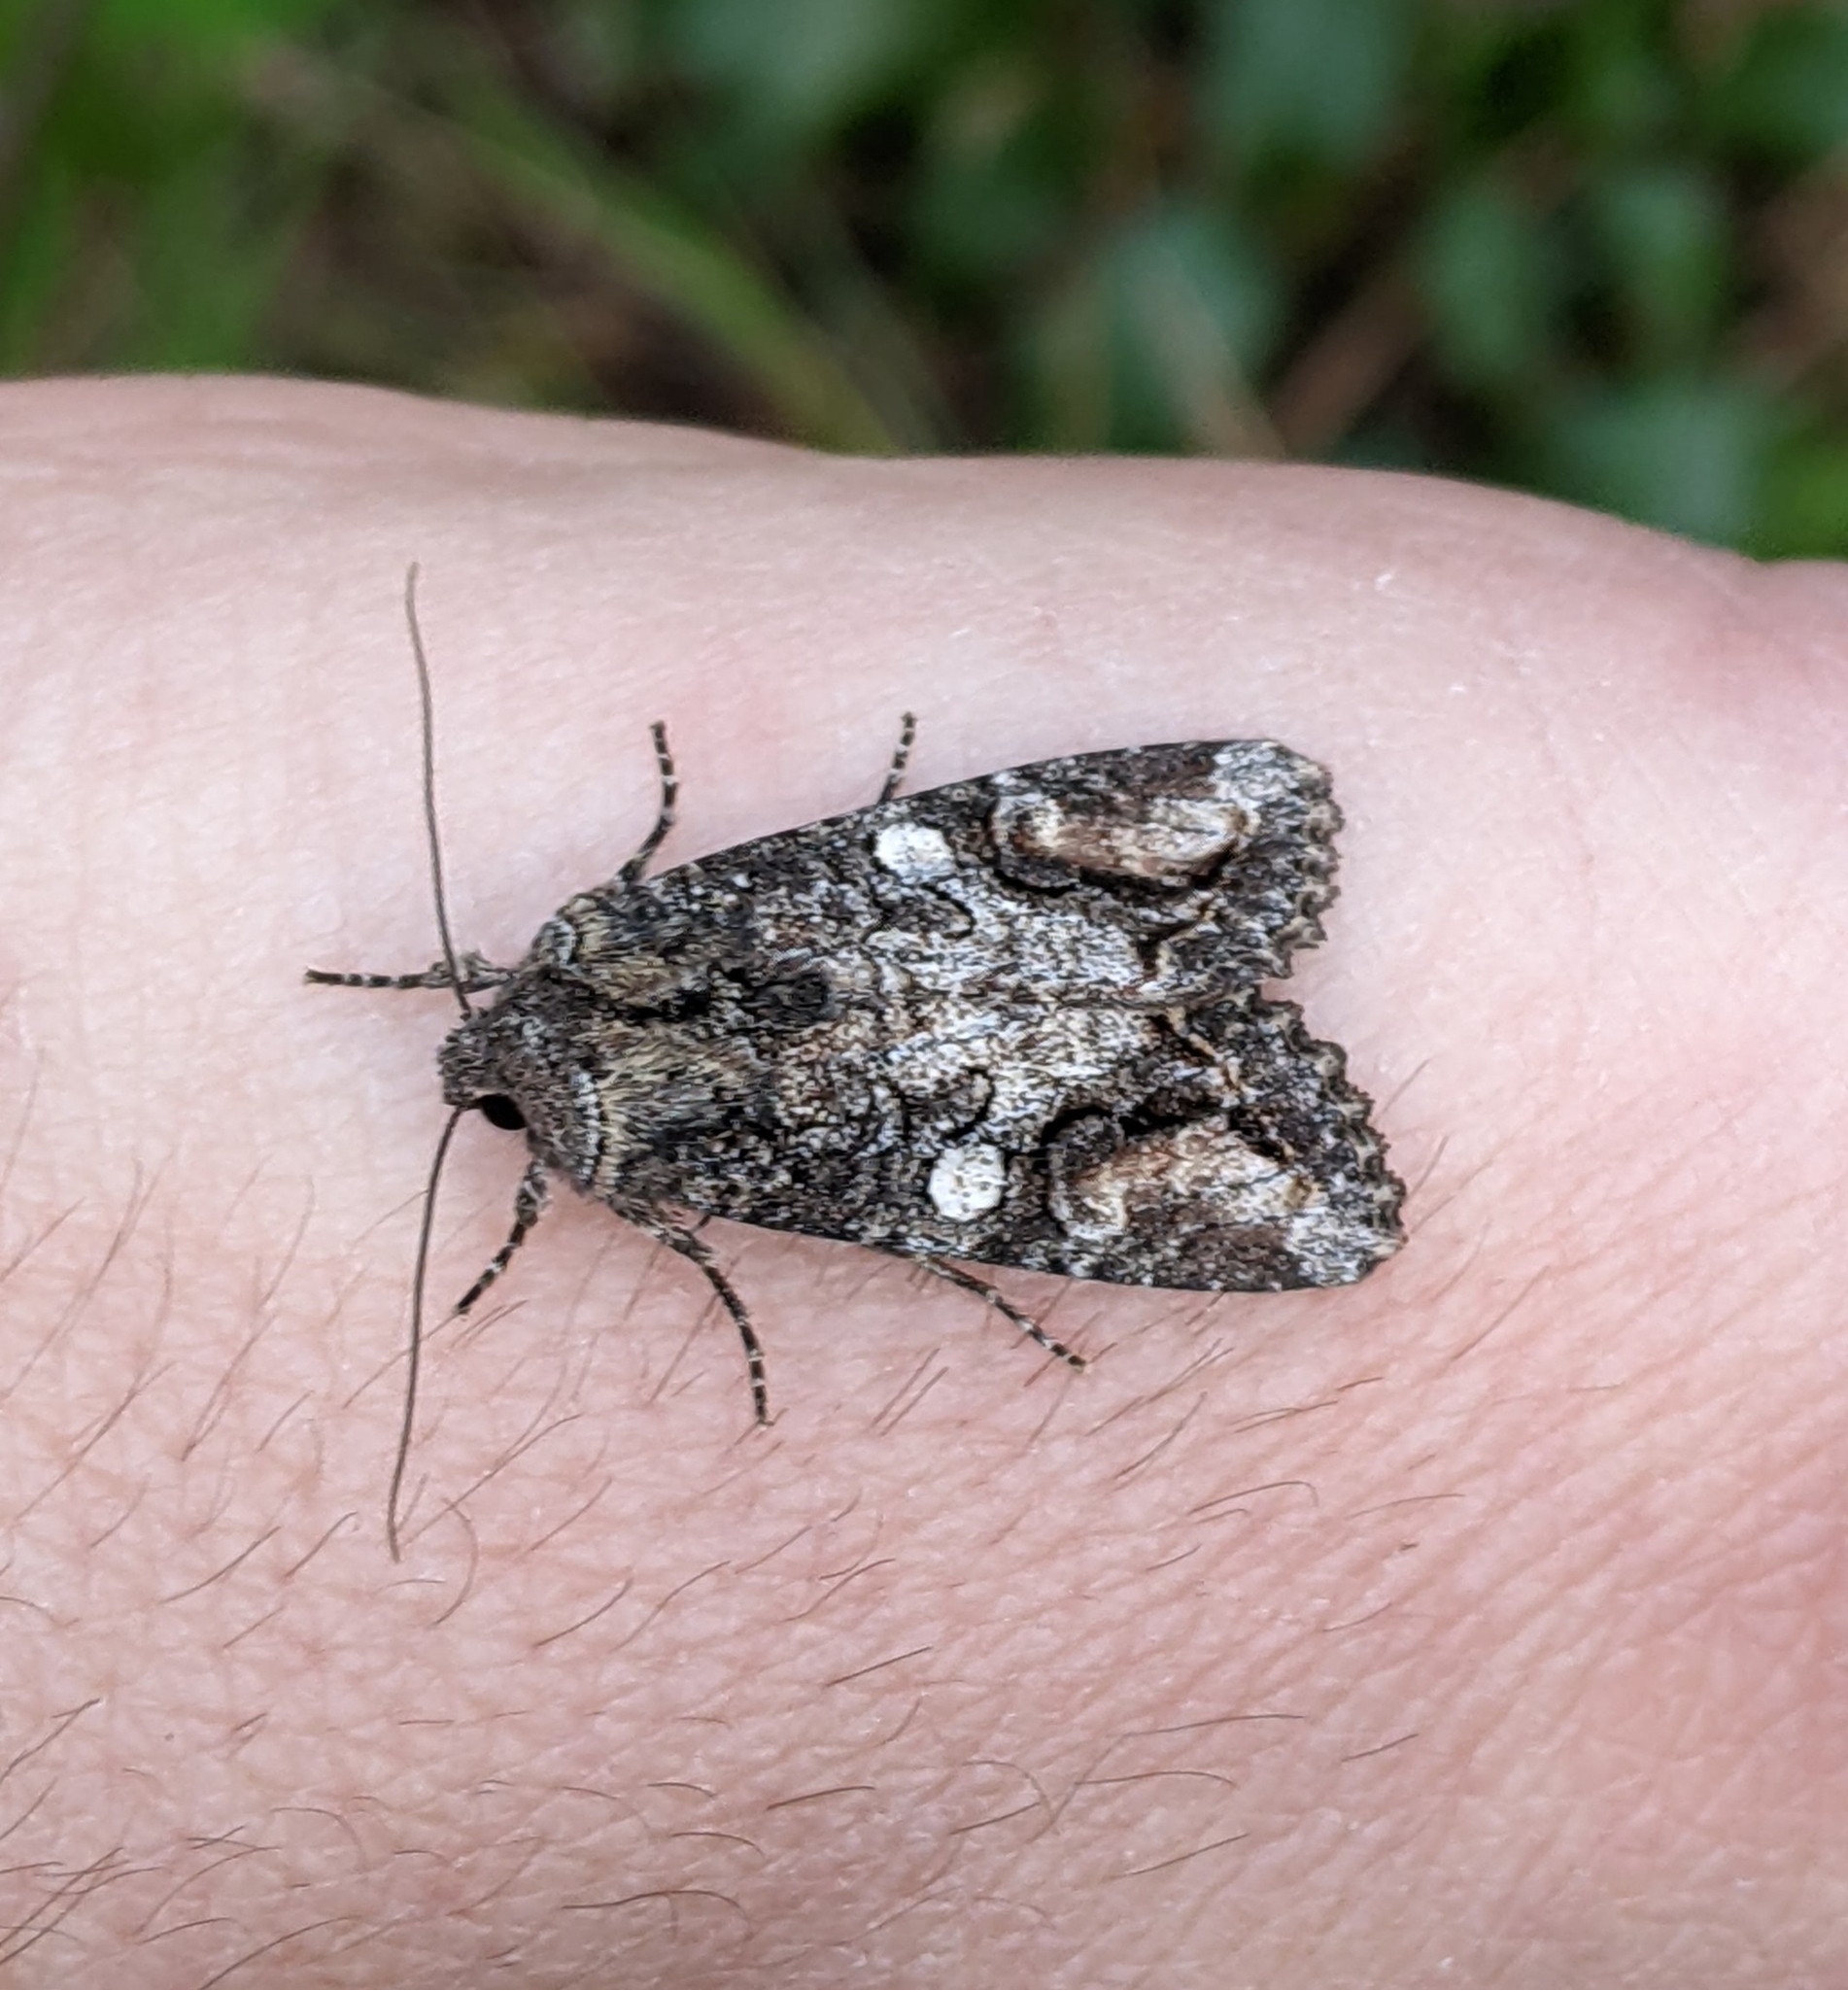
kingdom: Animalia
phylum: Arthropoda
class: Insecta
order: Lepidoptera
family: Noctuidae
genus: Egira
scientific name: Egira perlubens
